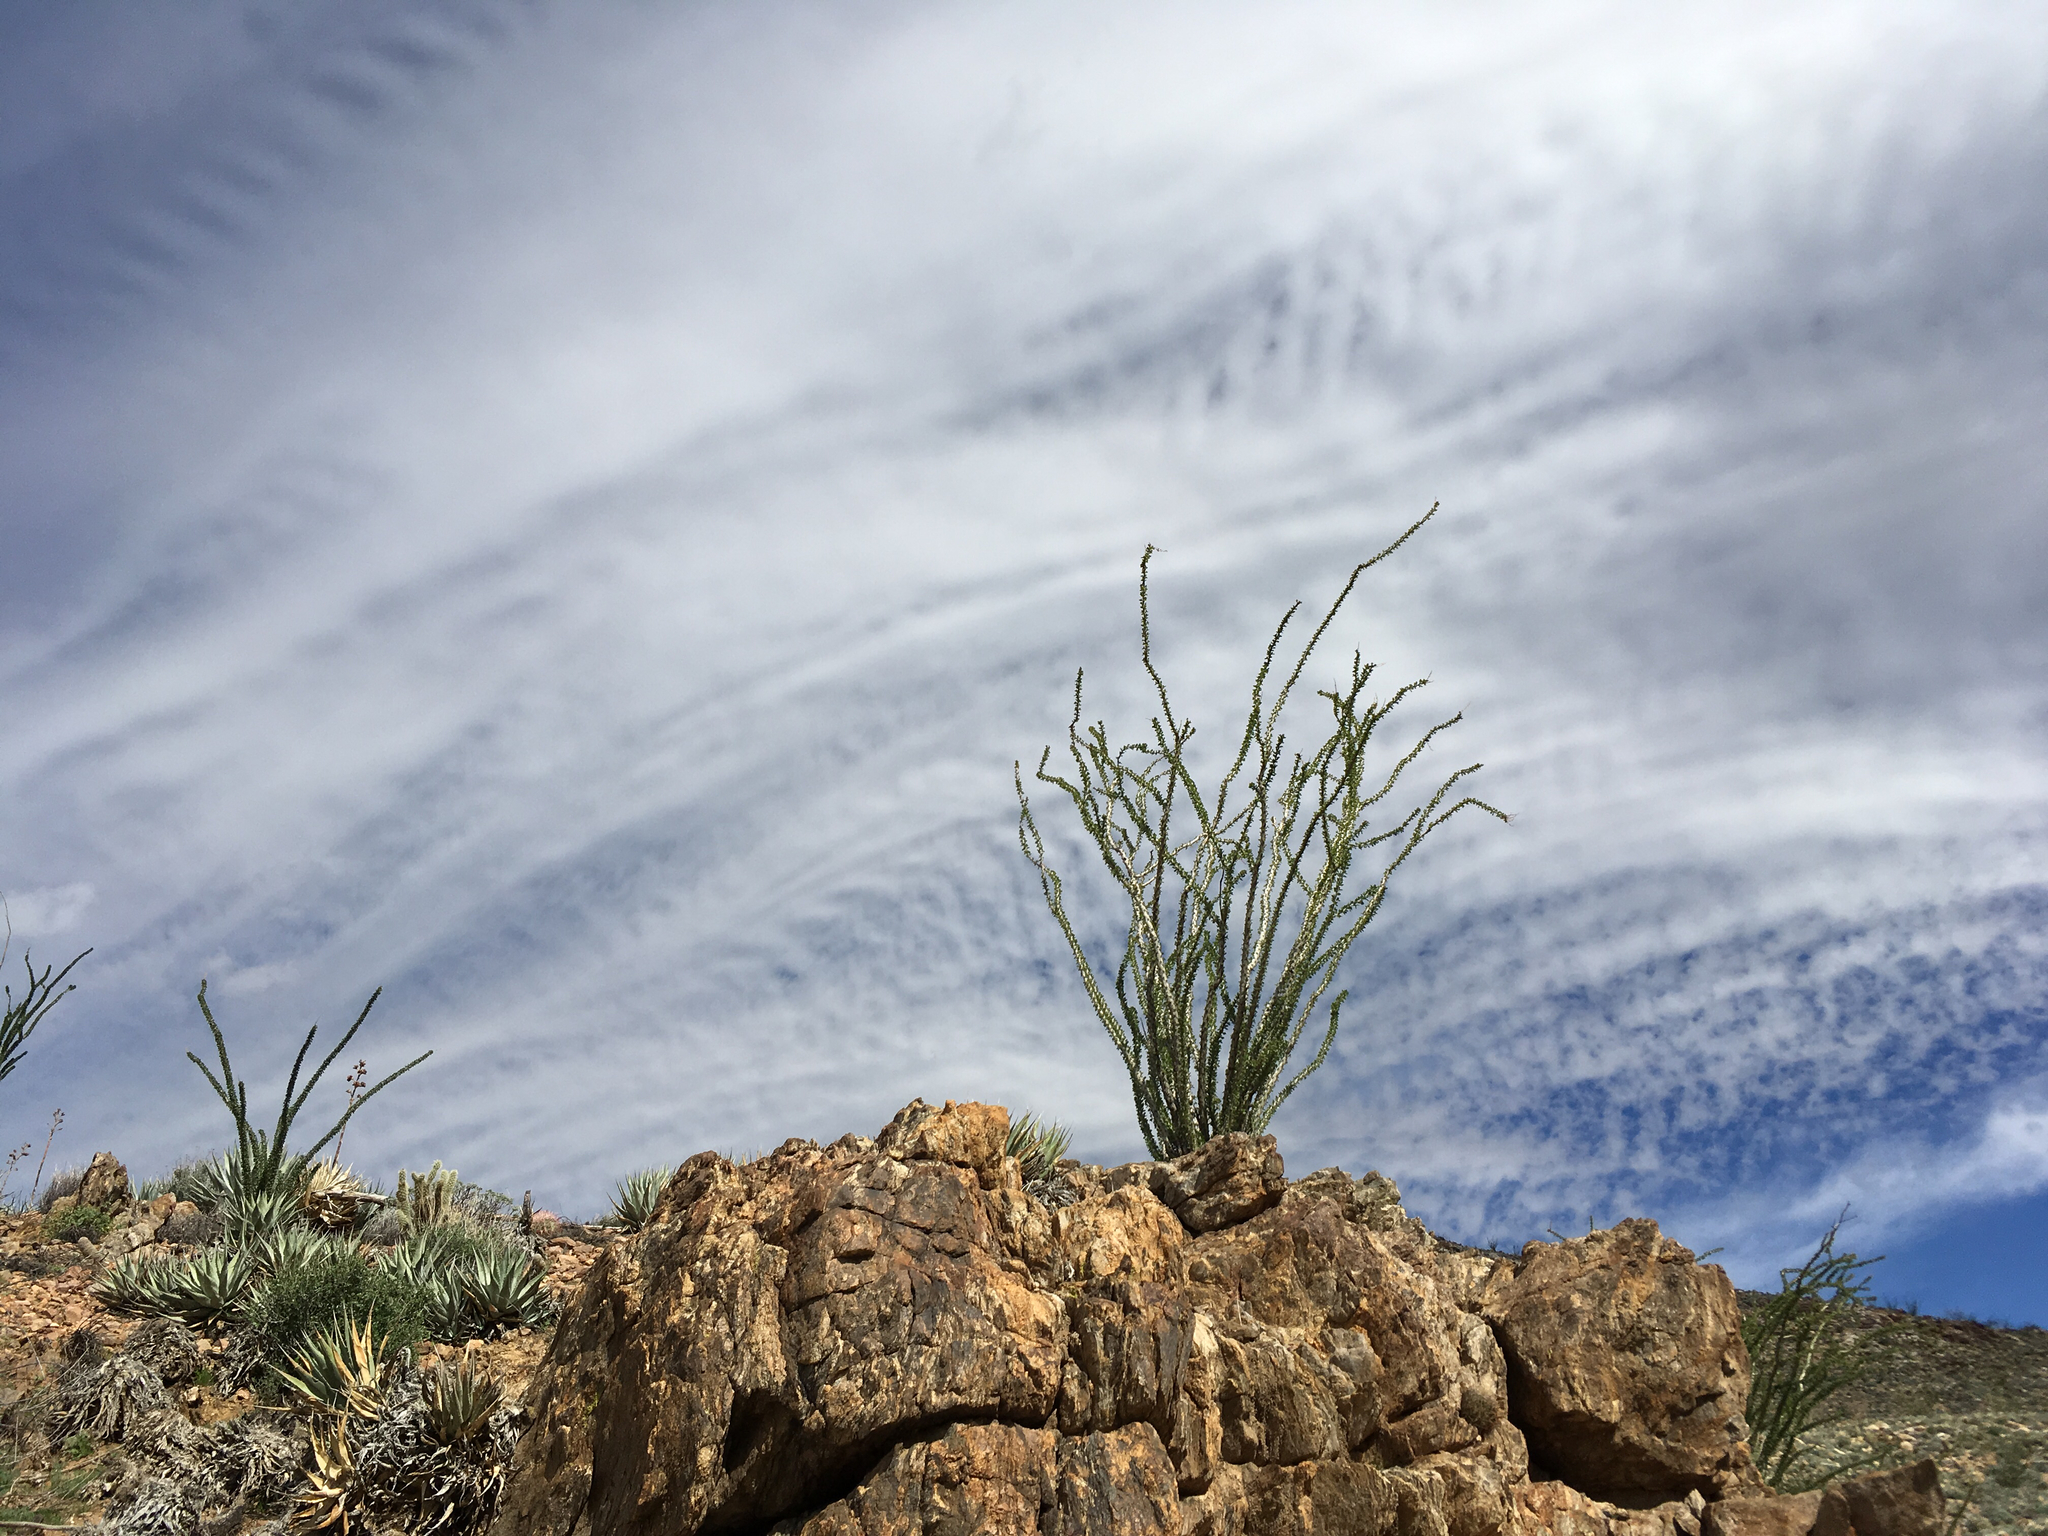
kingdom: Plantae
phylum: Tracheophyta
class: Magnoliopsida
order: Ericales
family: Fouquieriaceae
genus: Fouquieria
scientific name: Fouquieria splendens
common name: Vine-cactus
